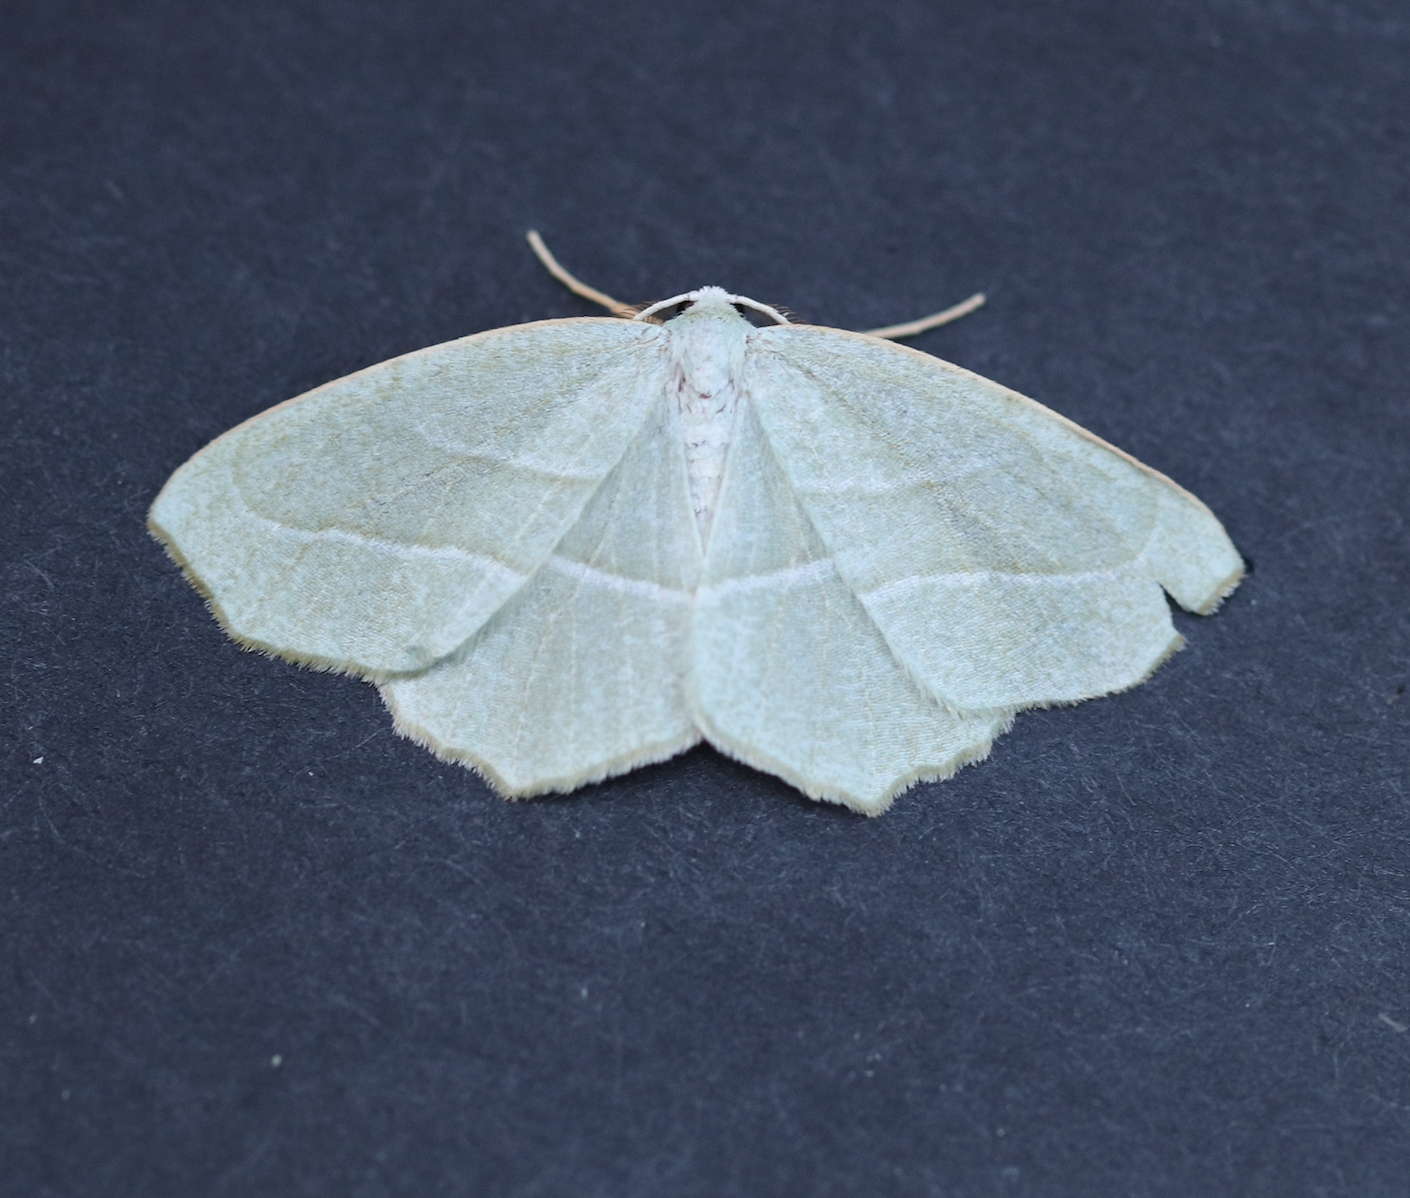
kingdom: Animalia
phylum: Arthropoda
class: Insecta
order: Lepidoptera
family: Geometridae
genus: Campaea
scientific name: Campaea perlata
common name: Fringed looper
